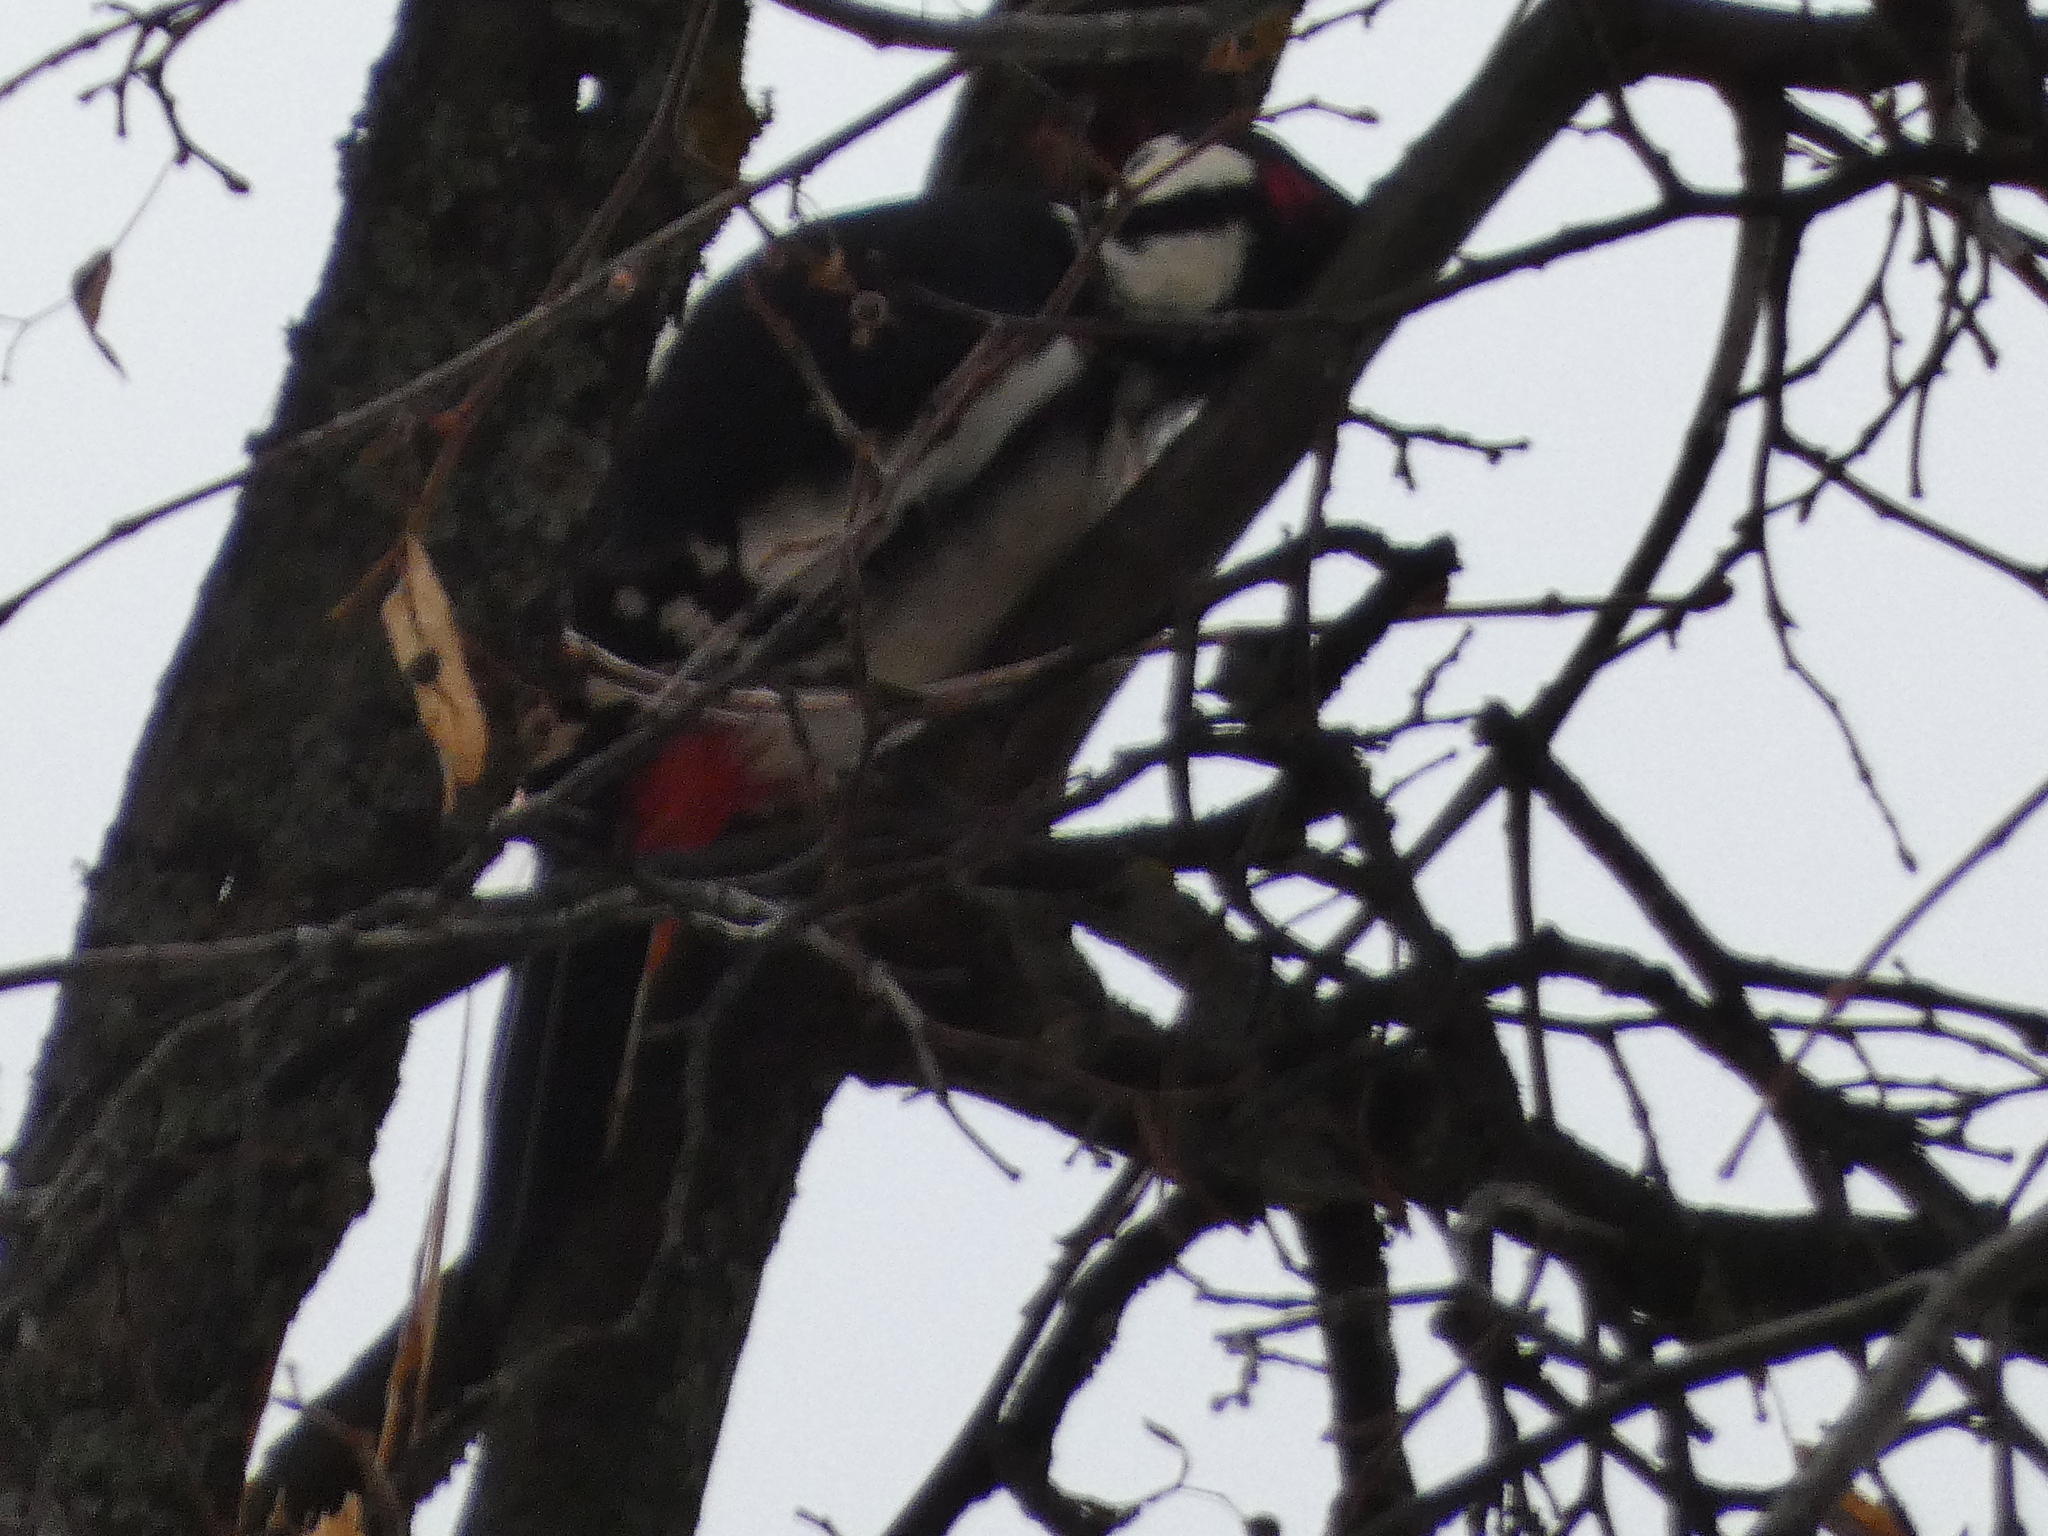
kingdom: Animalia
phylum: Chordata
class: Aves
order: Piciformes
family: Picidae
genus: Dendrocopos
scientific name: Dendrocopos major
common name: Great spotted woodpecker
